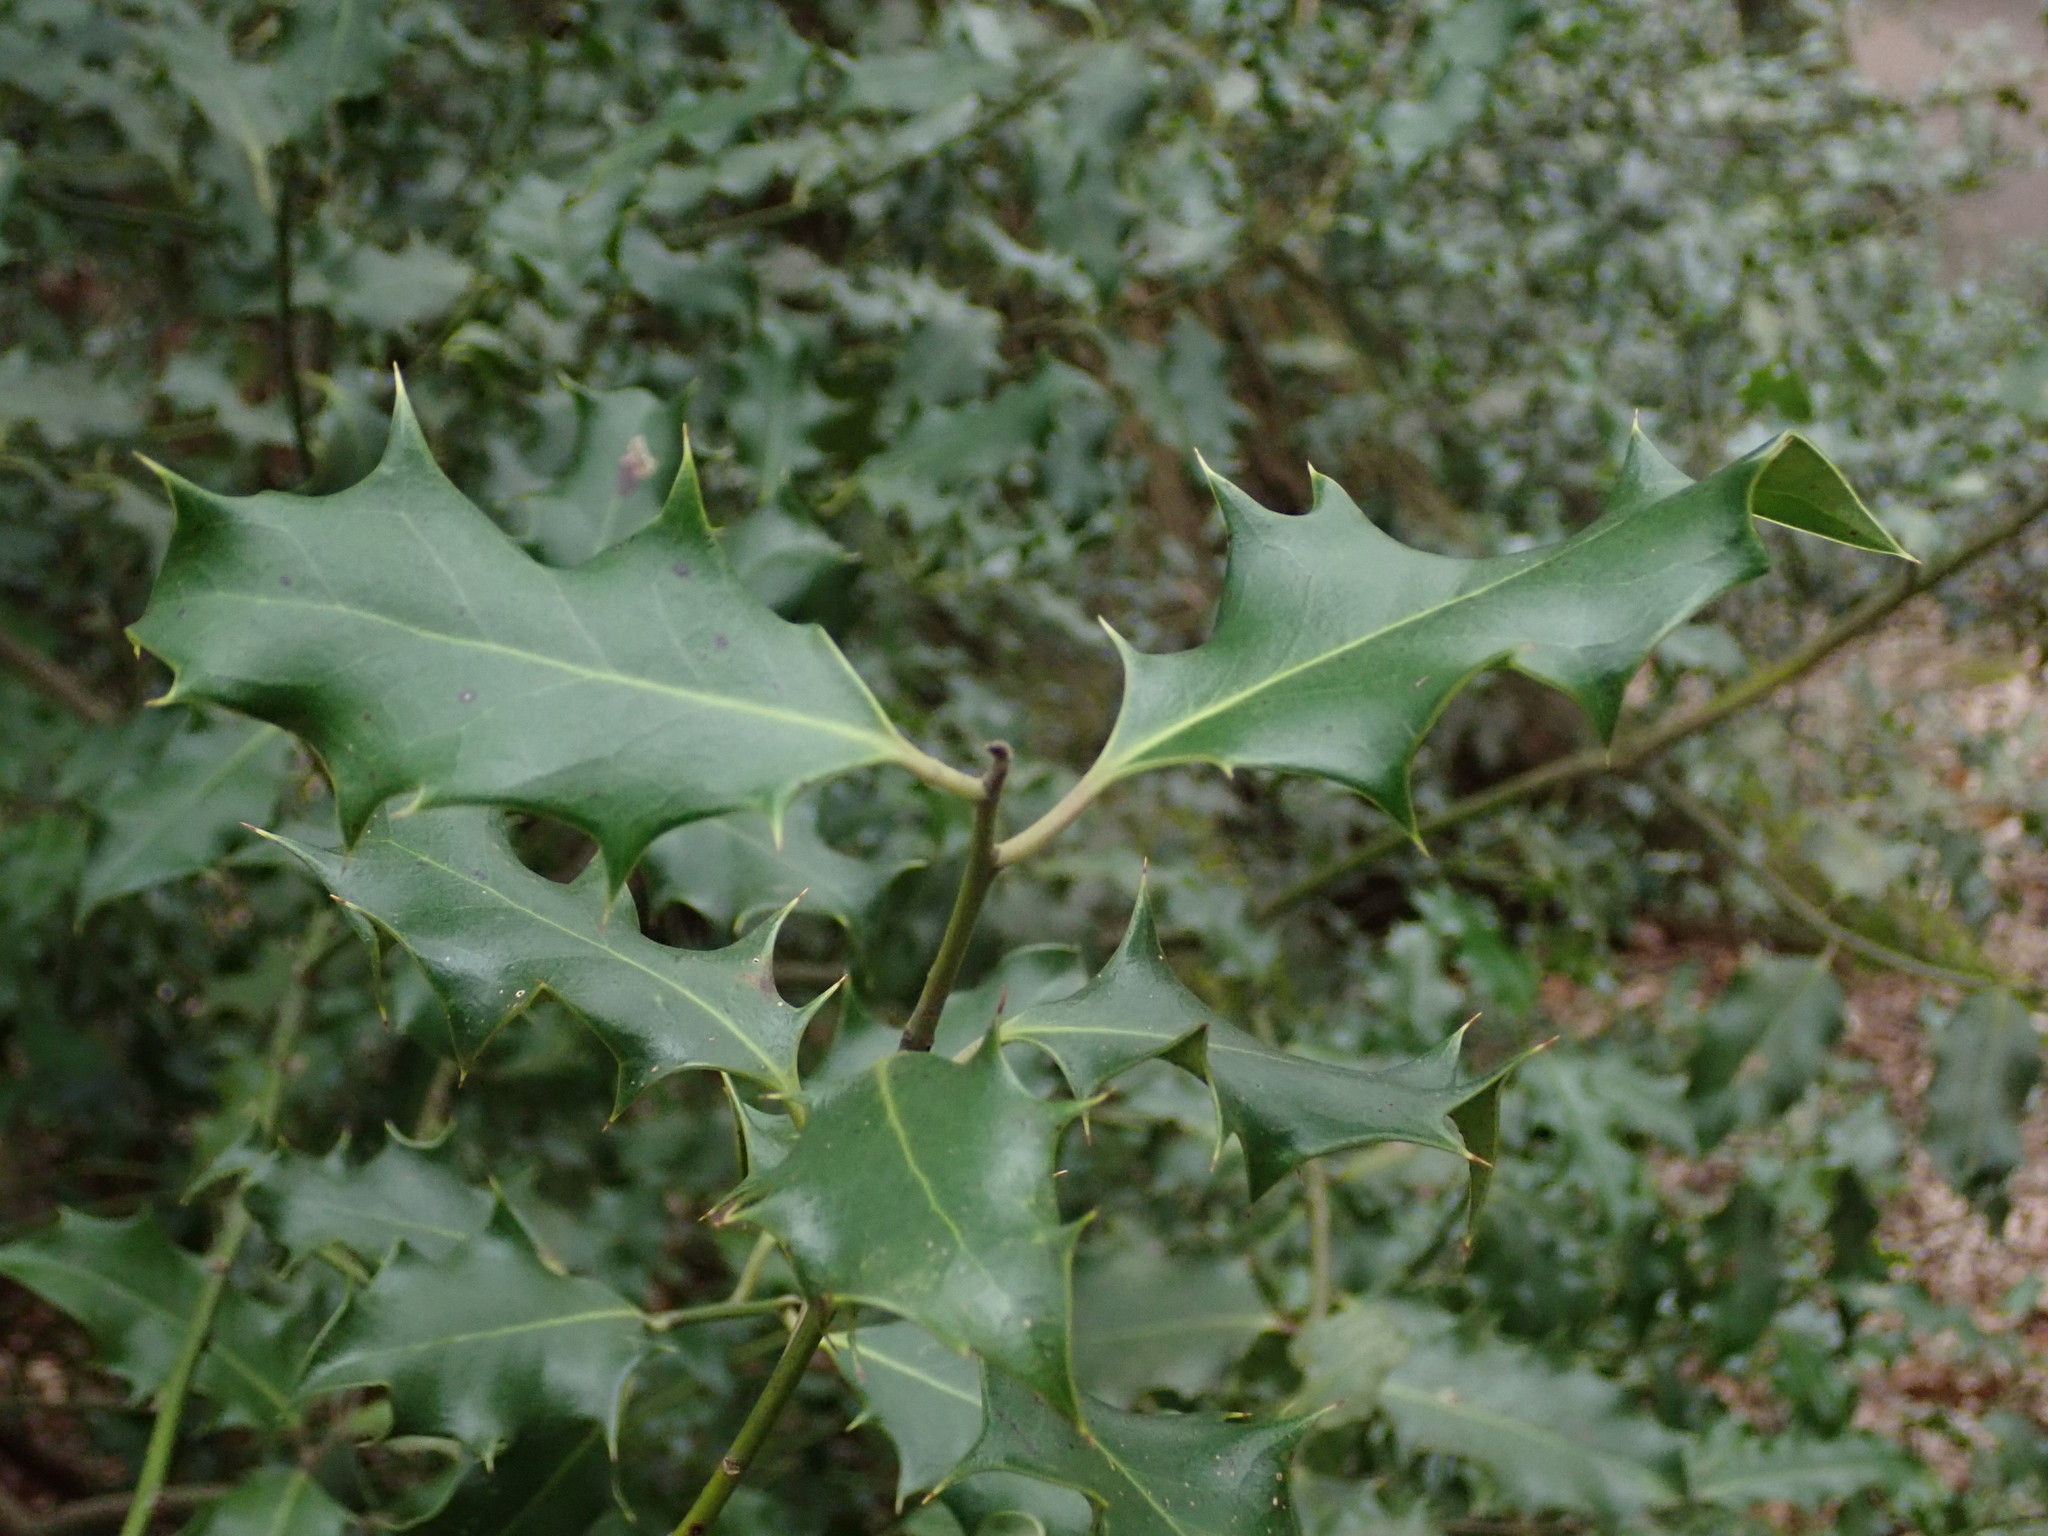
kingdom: Plantae
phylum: Tracheophyta
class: Magnoliopsida
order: Aquifoliales
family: Aquifoliaceae
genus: Ilex
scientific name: Ilex aquifolium
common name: English holly
